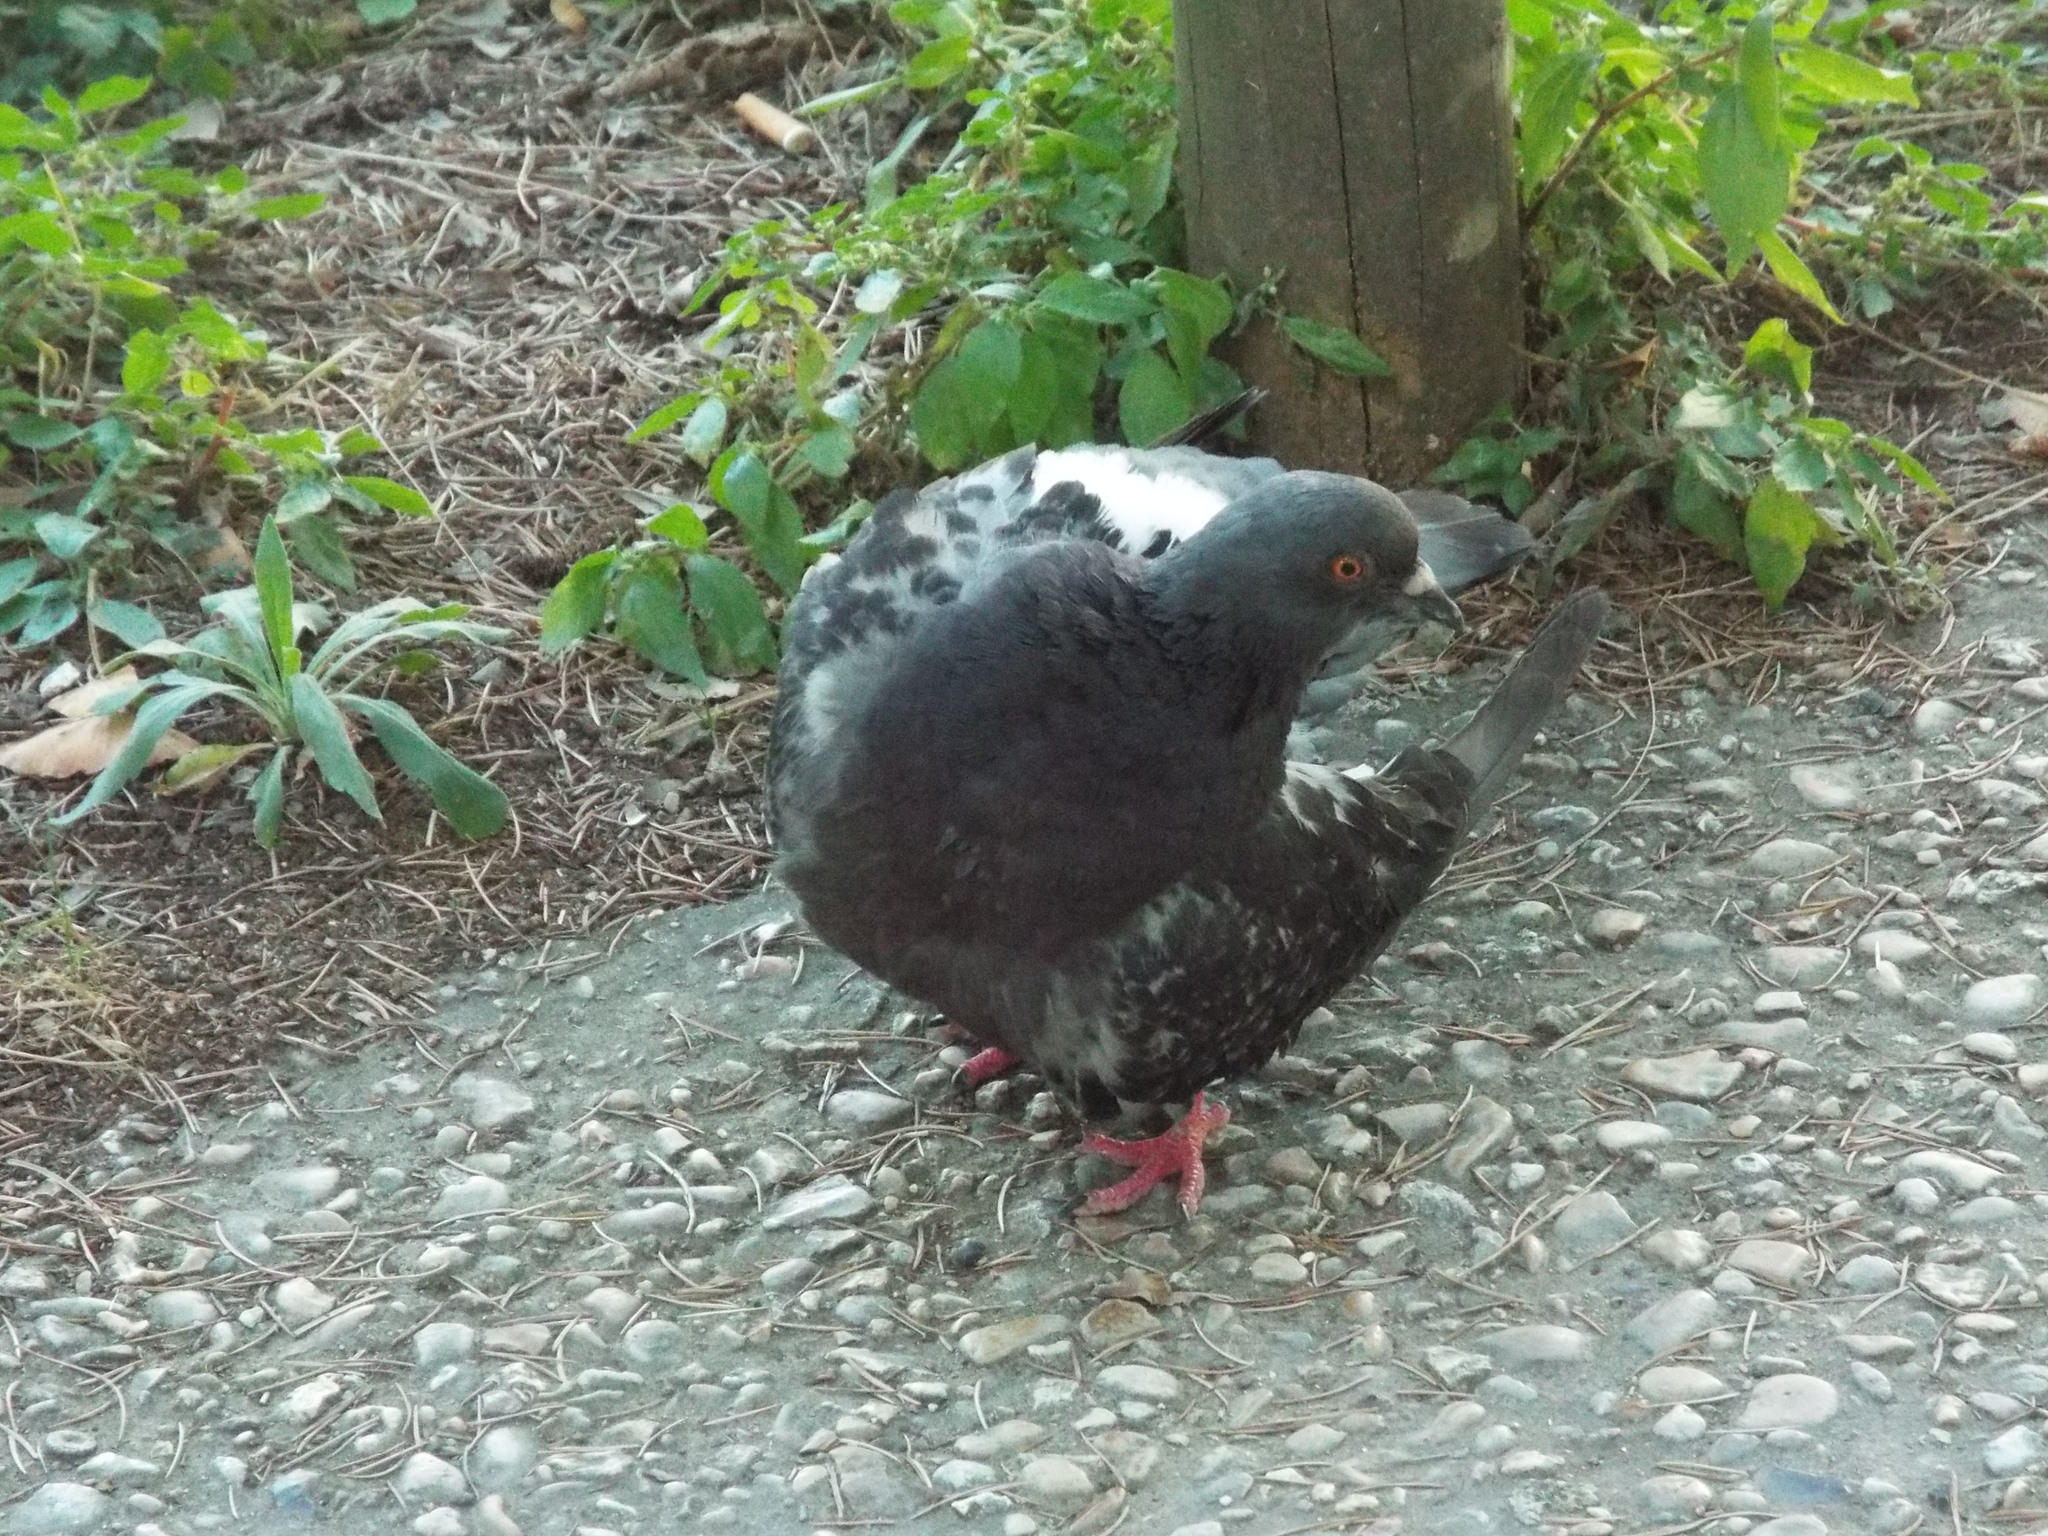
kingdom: Animalia
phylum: Chordata
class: Aves
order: Columbiformes
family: Columbidae
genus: Columba
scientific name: Columba livia
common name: Rock pigeon
